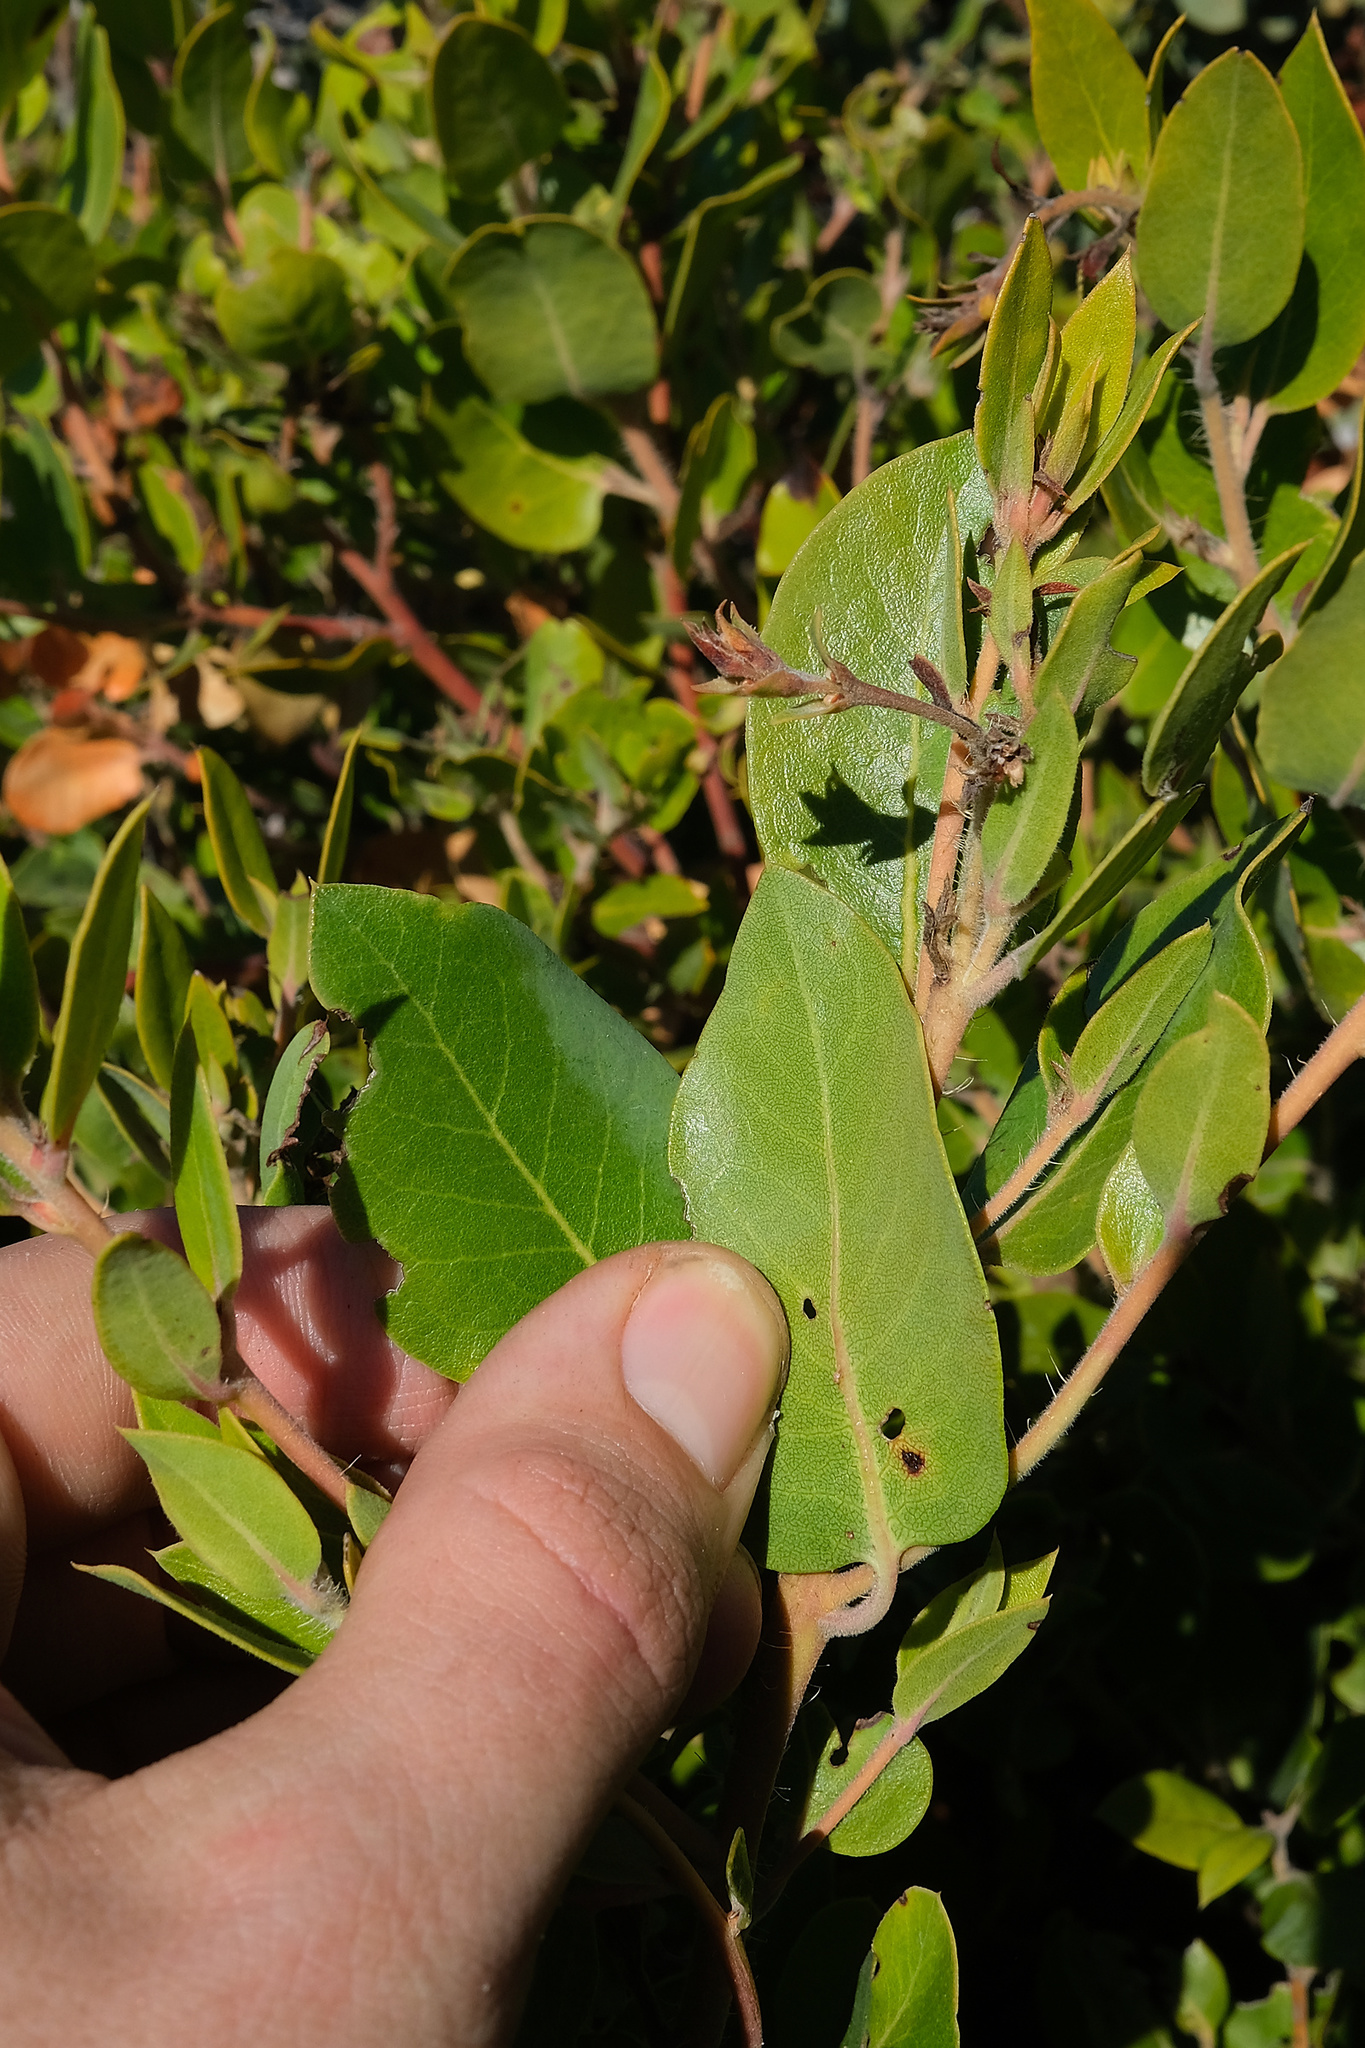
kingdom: Plantae
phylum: Tracheophyta
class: Magnoliopsida
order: Ericales
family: Ericaceae
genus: Arctostaphylos
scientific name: Arctostaphylos crustacea
